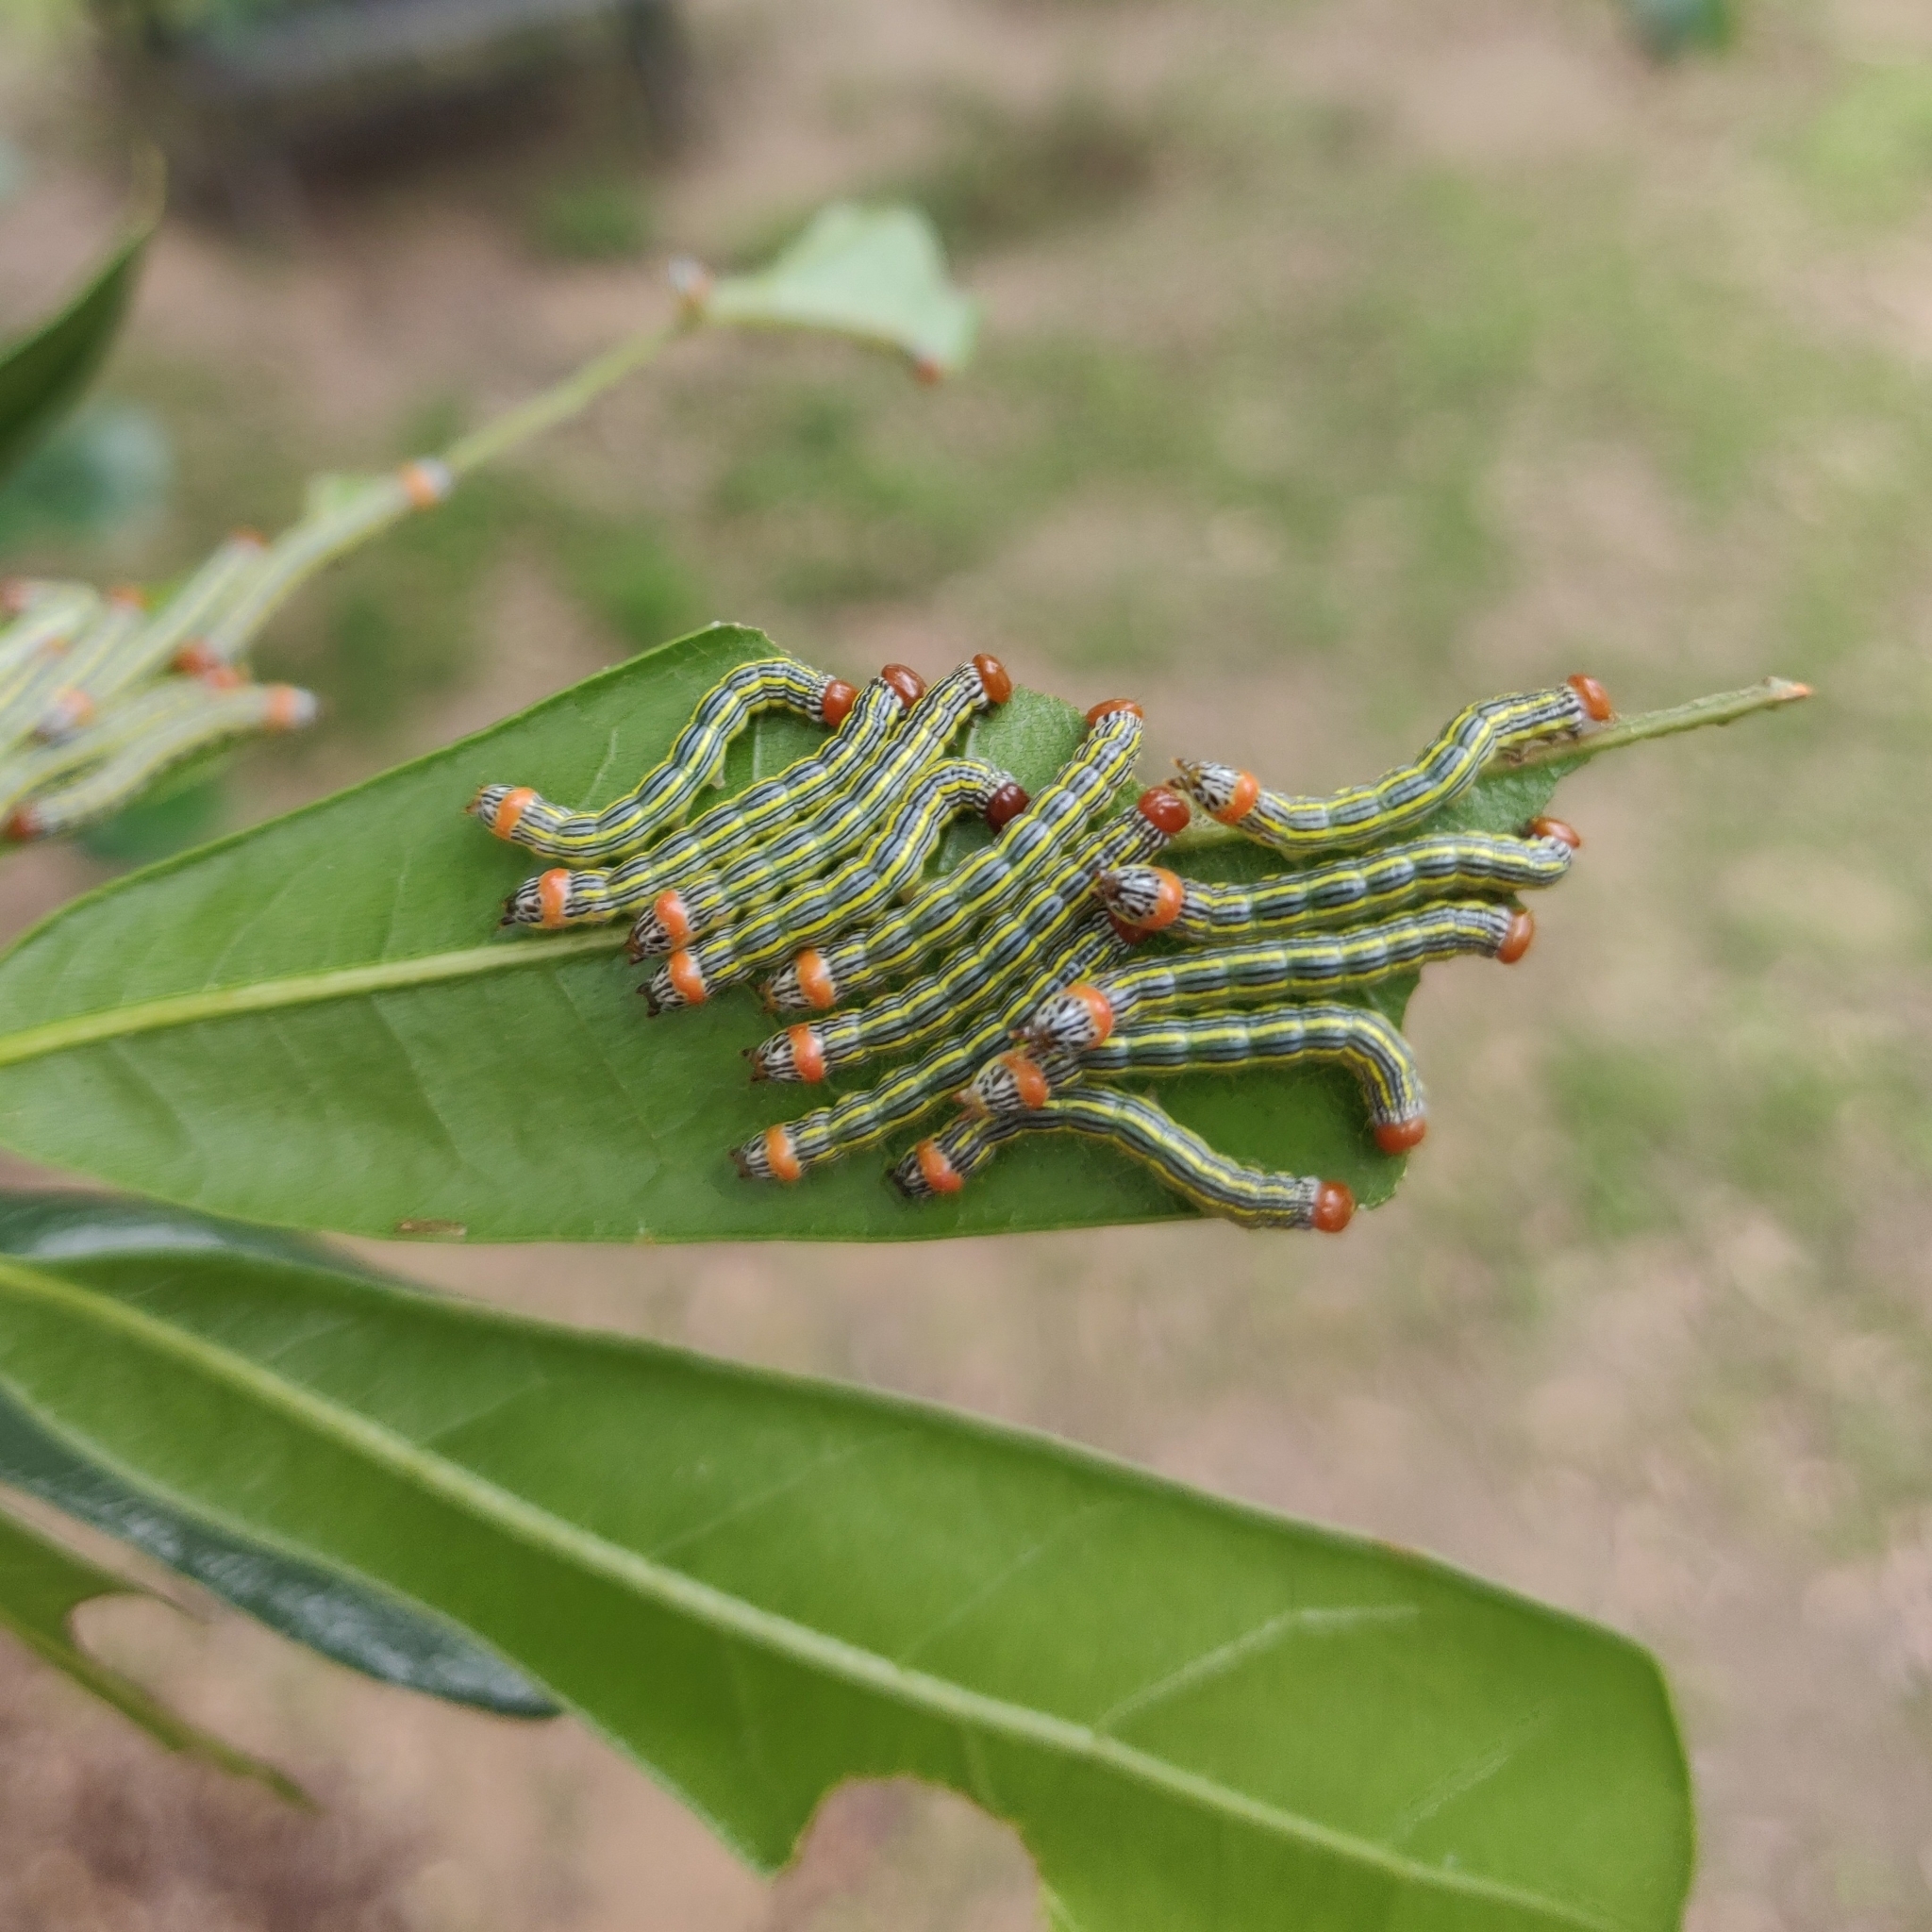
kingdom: Animalia
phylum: Arthropoda
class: Insecta
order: Lepidoptera
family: Notodontidae
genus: Symmerista
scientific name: Symmerista albifrons
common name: White-headed prominent
